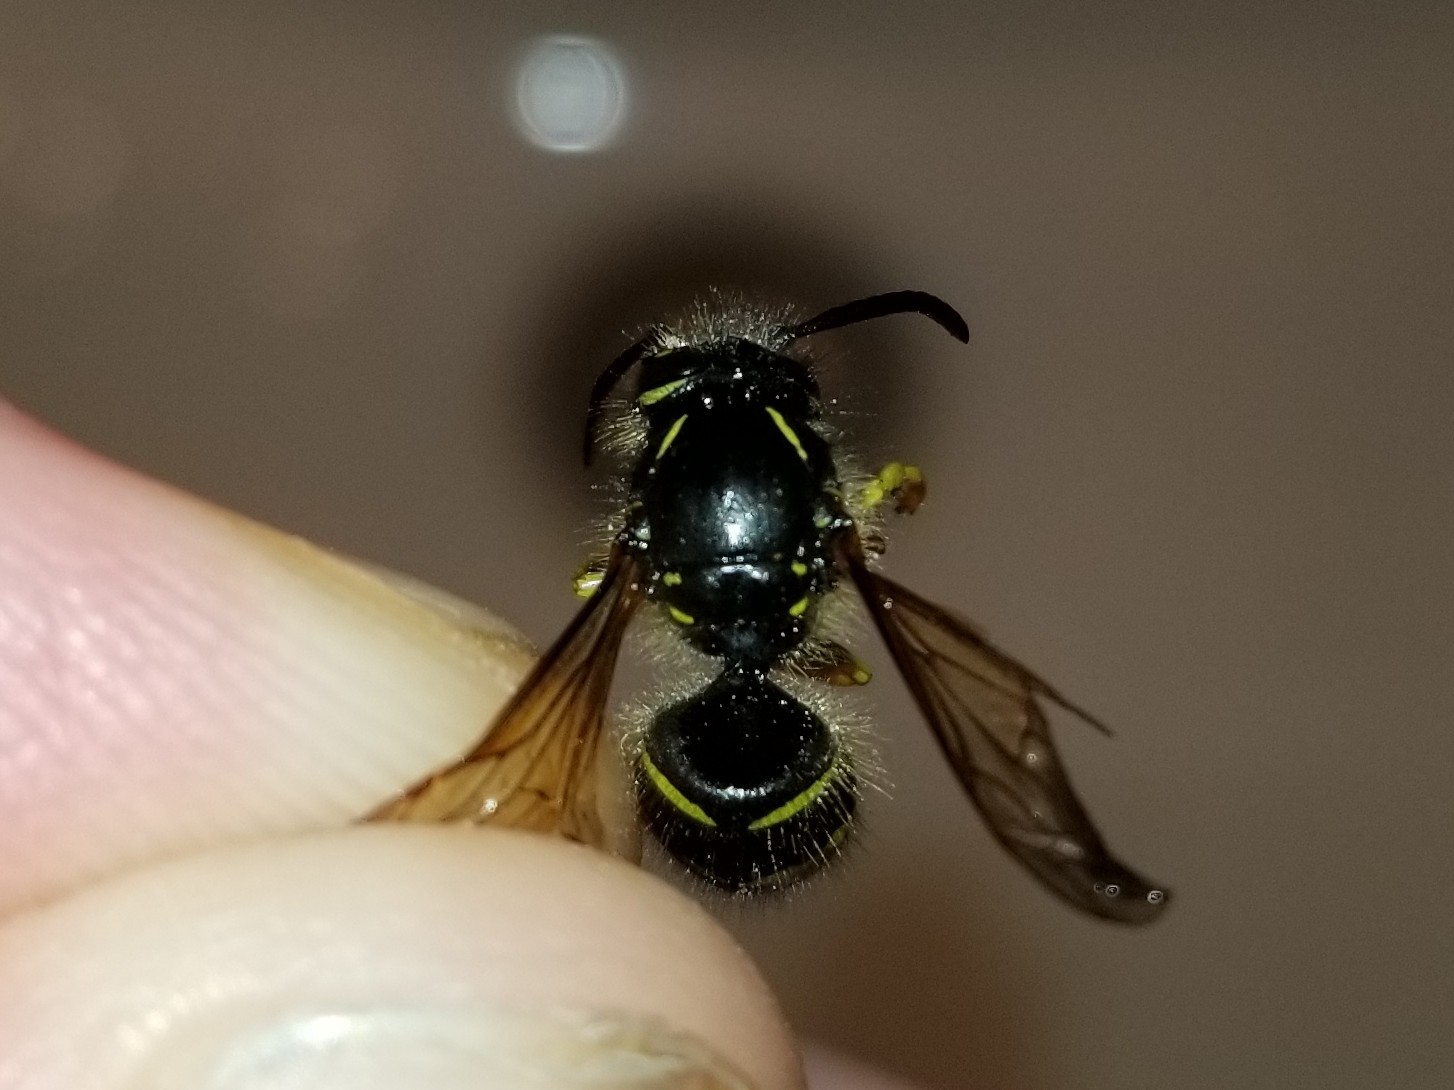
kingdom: Animalia
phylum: Arthropoda
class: Insecta
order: Hymenoptera
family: Vespidae
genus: Dolichovespula
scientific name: Dolichovespula arenaria
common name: Aerial yellowjacket
